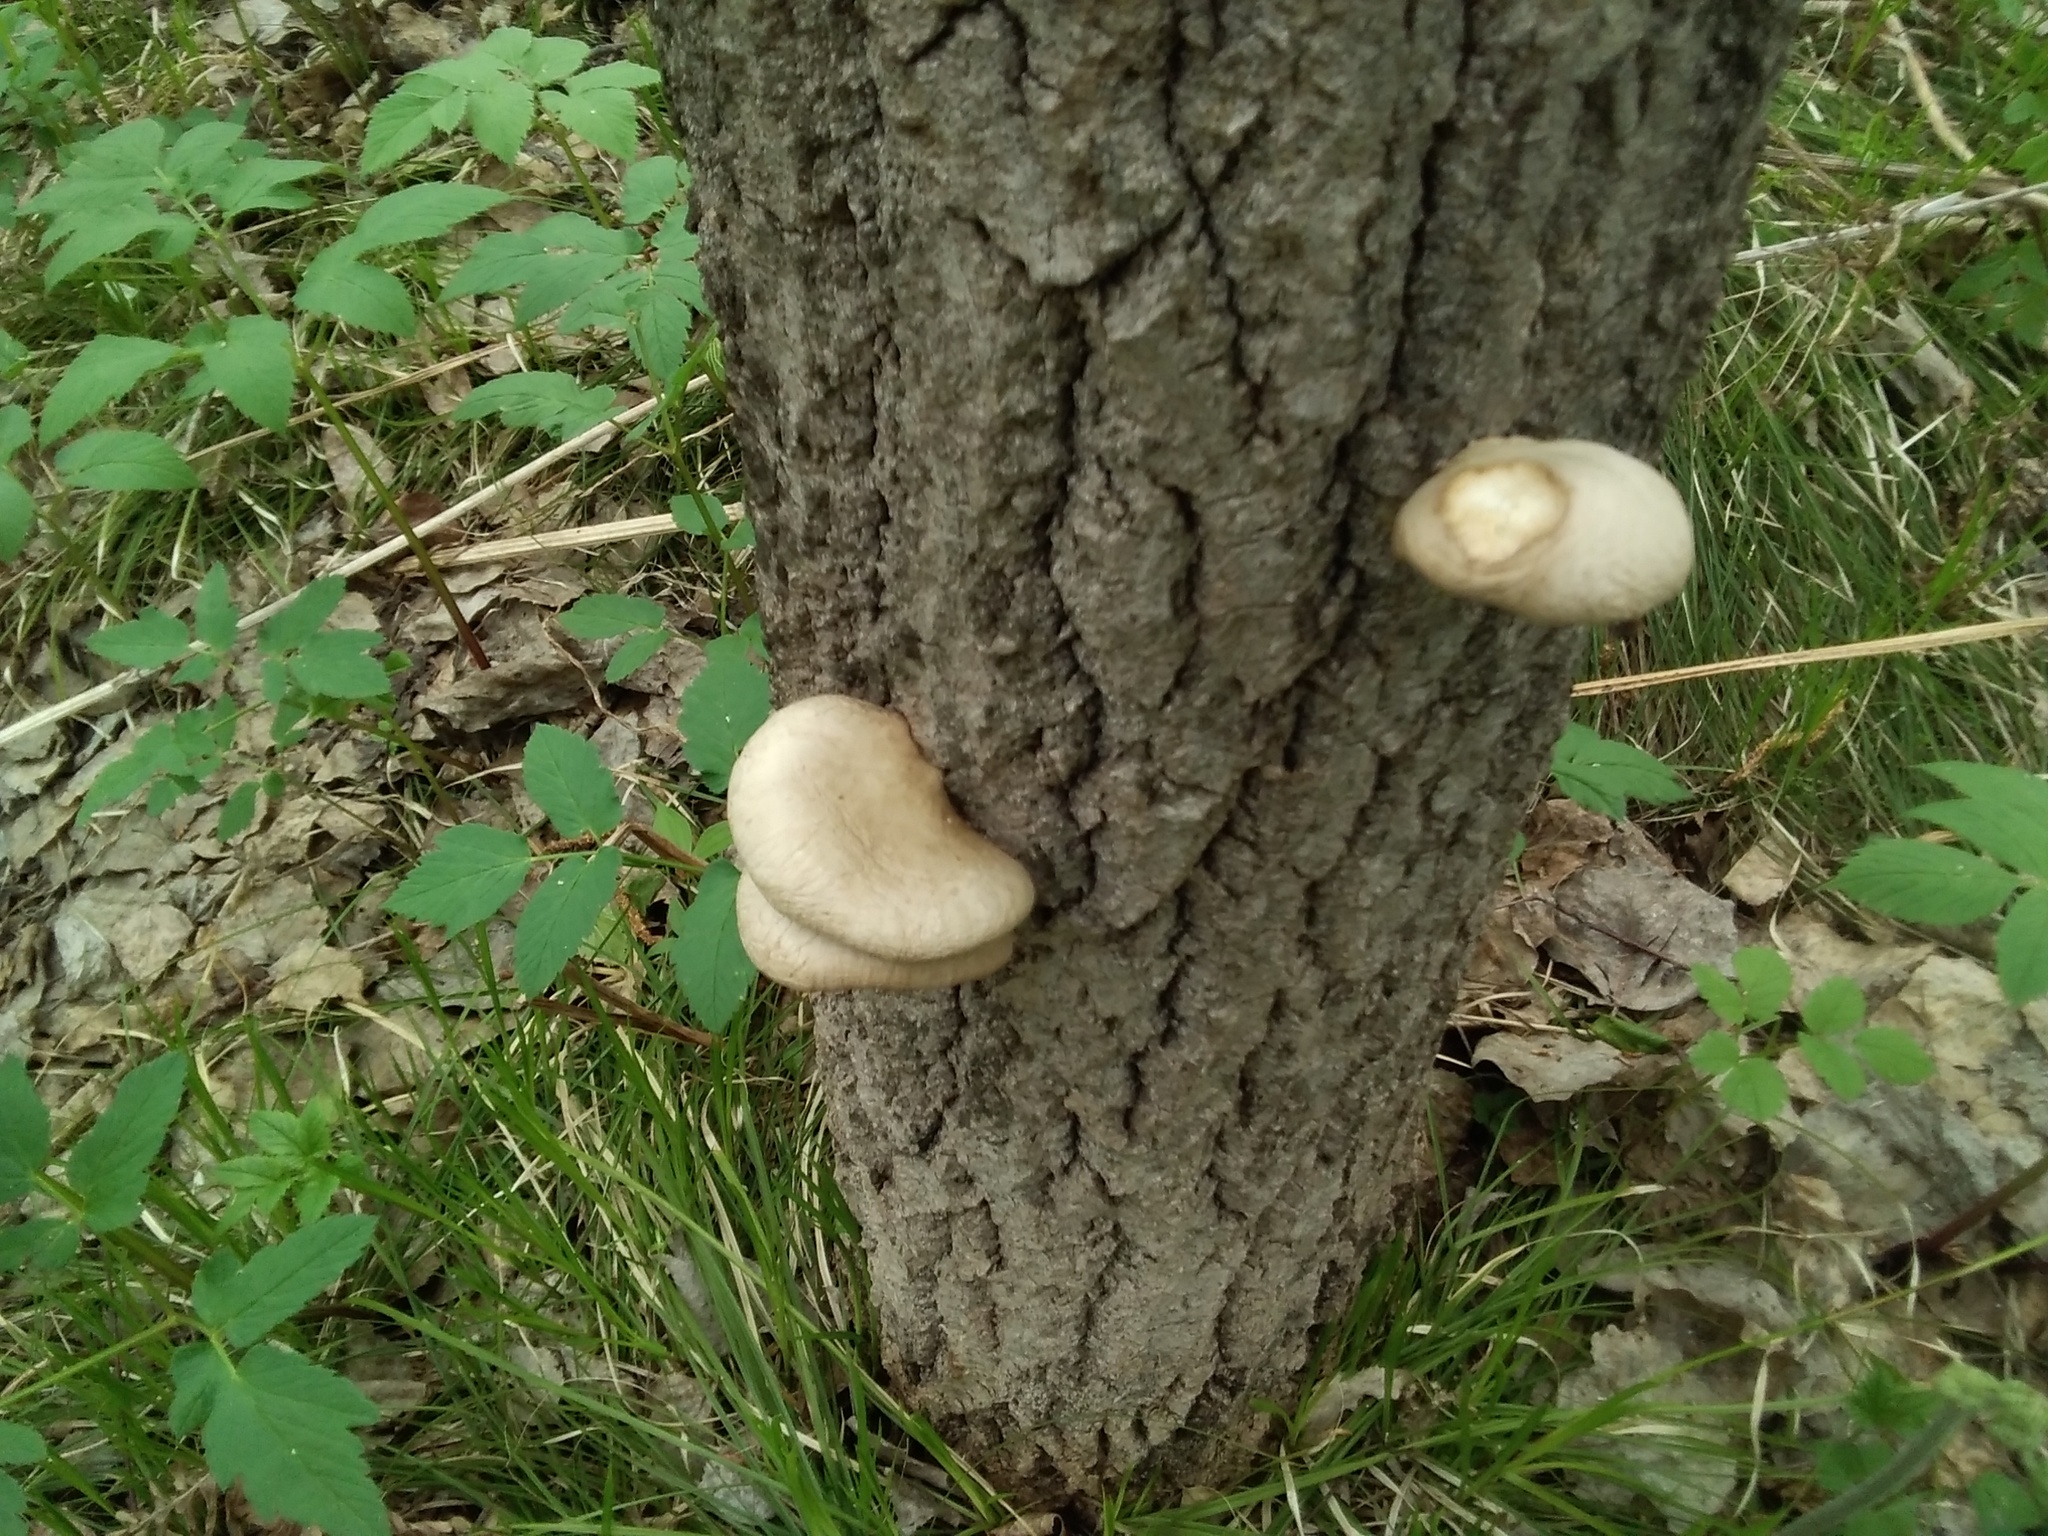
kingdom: Fungi
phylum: Basidiomycota
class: Agaricomycetes
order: Agaricales
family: Pleurotaceae
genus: Pleurotus
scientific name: Pleurotus calyptratus
